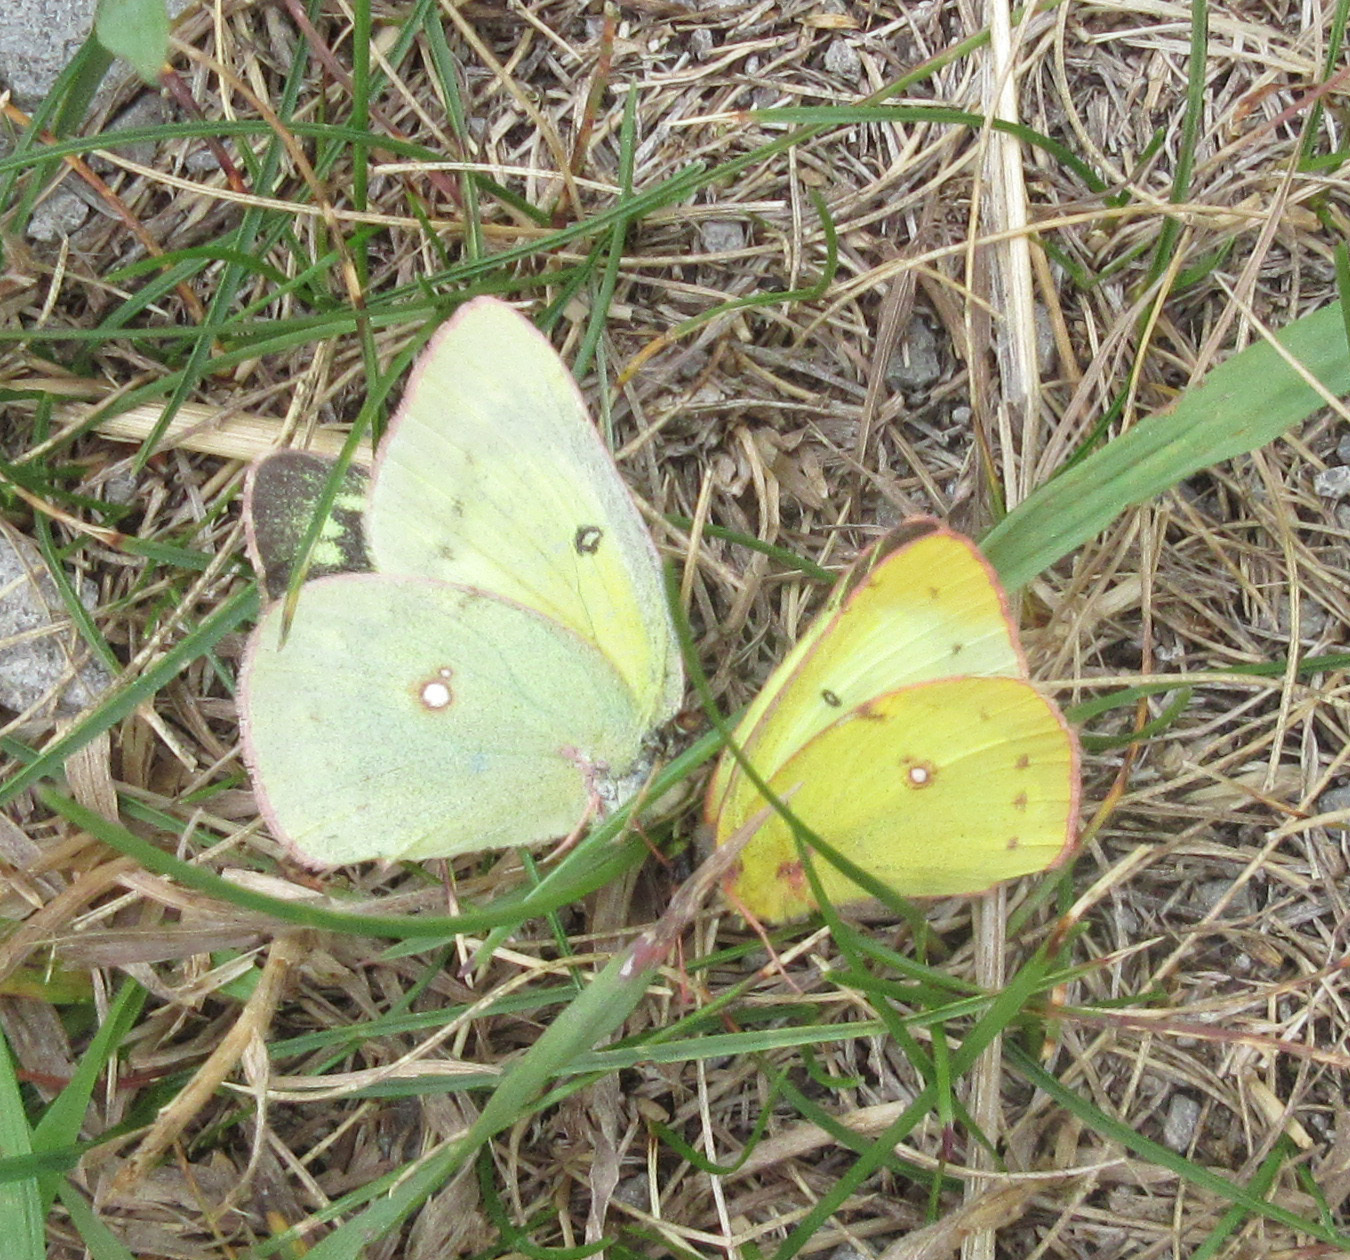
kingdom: Animalia
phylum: Arthropoda
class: Insecta
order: Lepidoptera
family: Pieridae
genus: Colias
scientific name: Colias philodice
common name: Clouded sulphur
